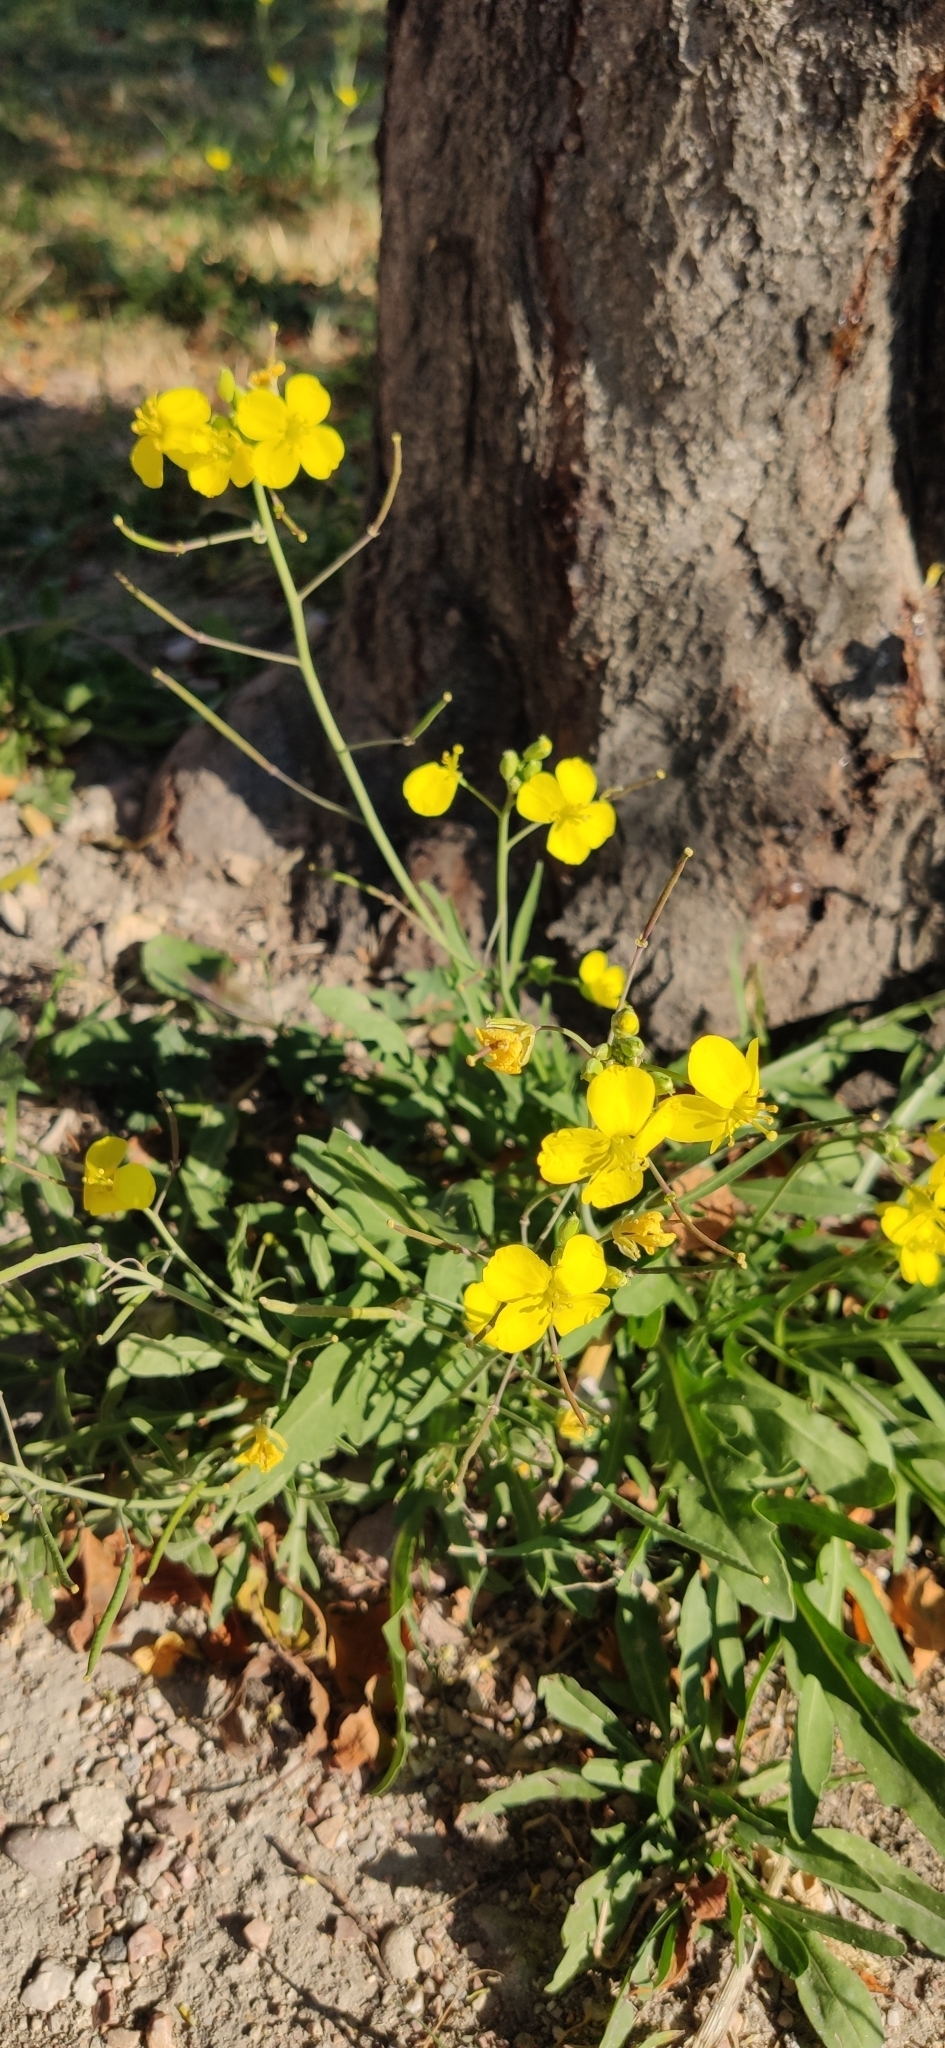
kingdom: Plantae
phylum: Tracheophyta
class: Magnoliopsida
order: Brassicales
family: Brassicaceae
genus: Diplotaxis
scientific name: Diplotaxis tenuifolia
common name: Perennial wall-rocket
